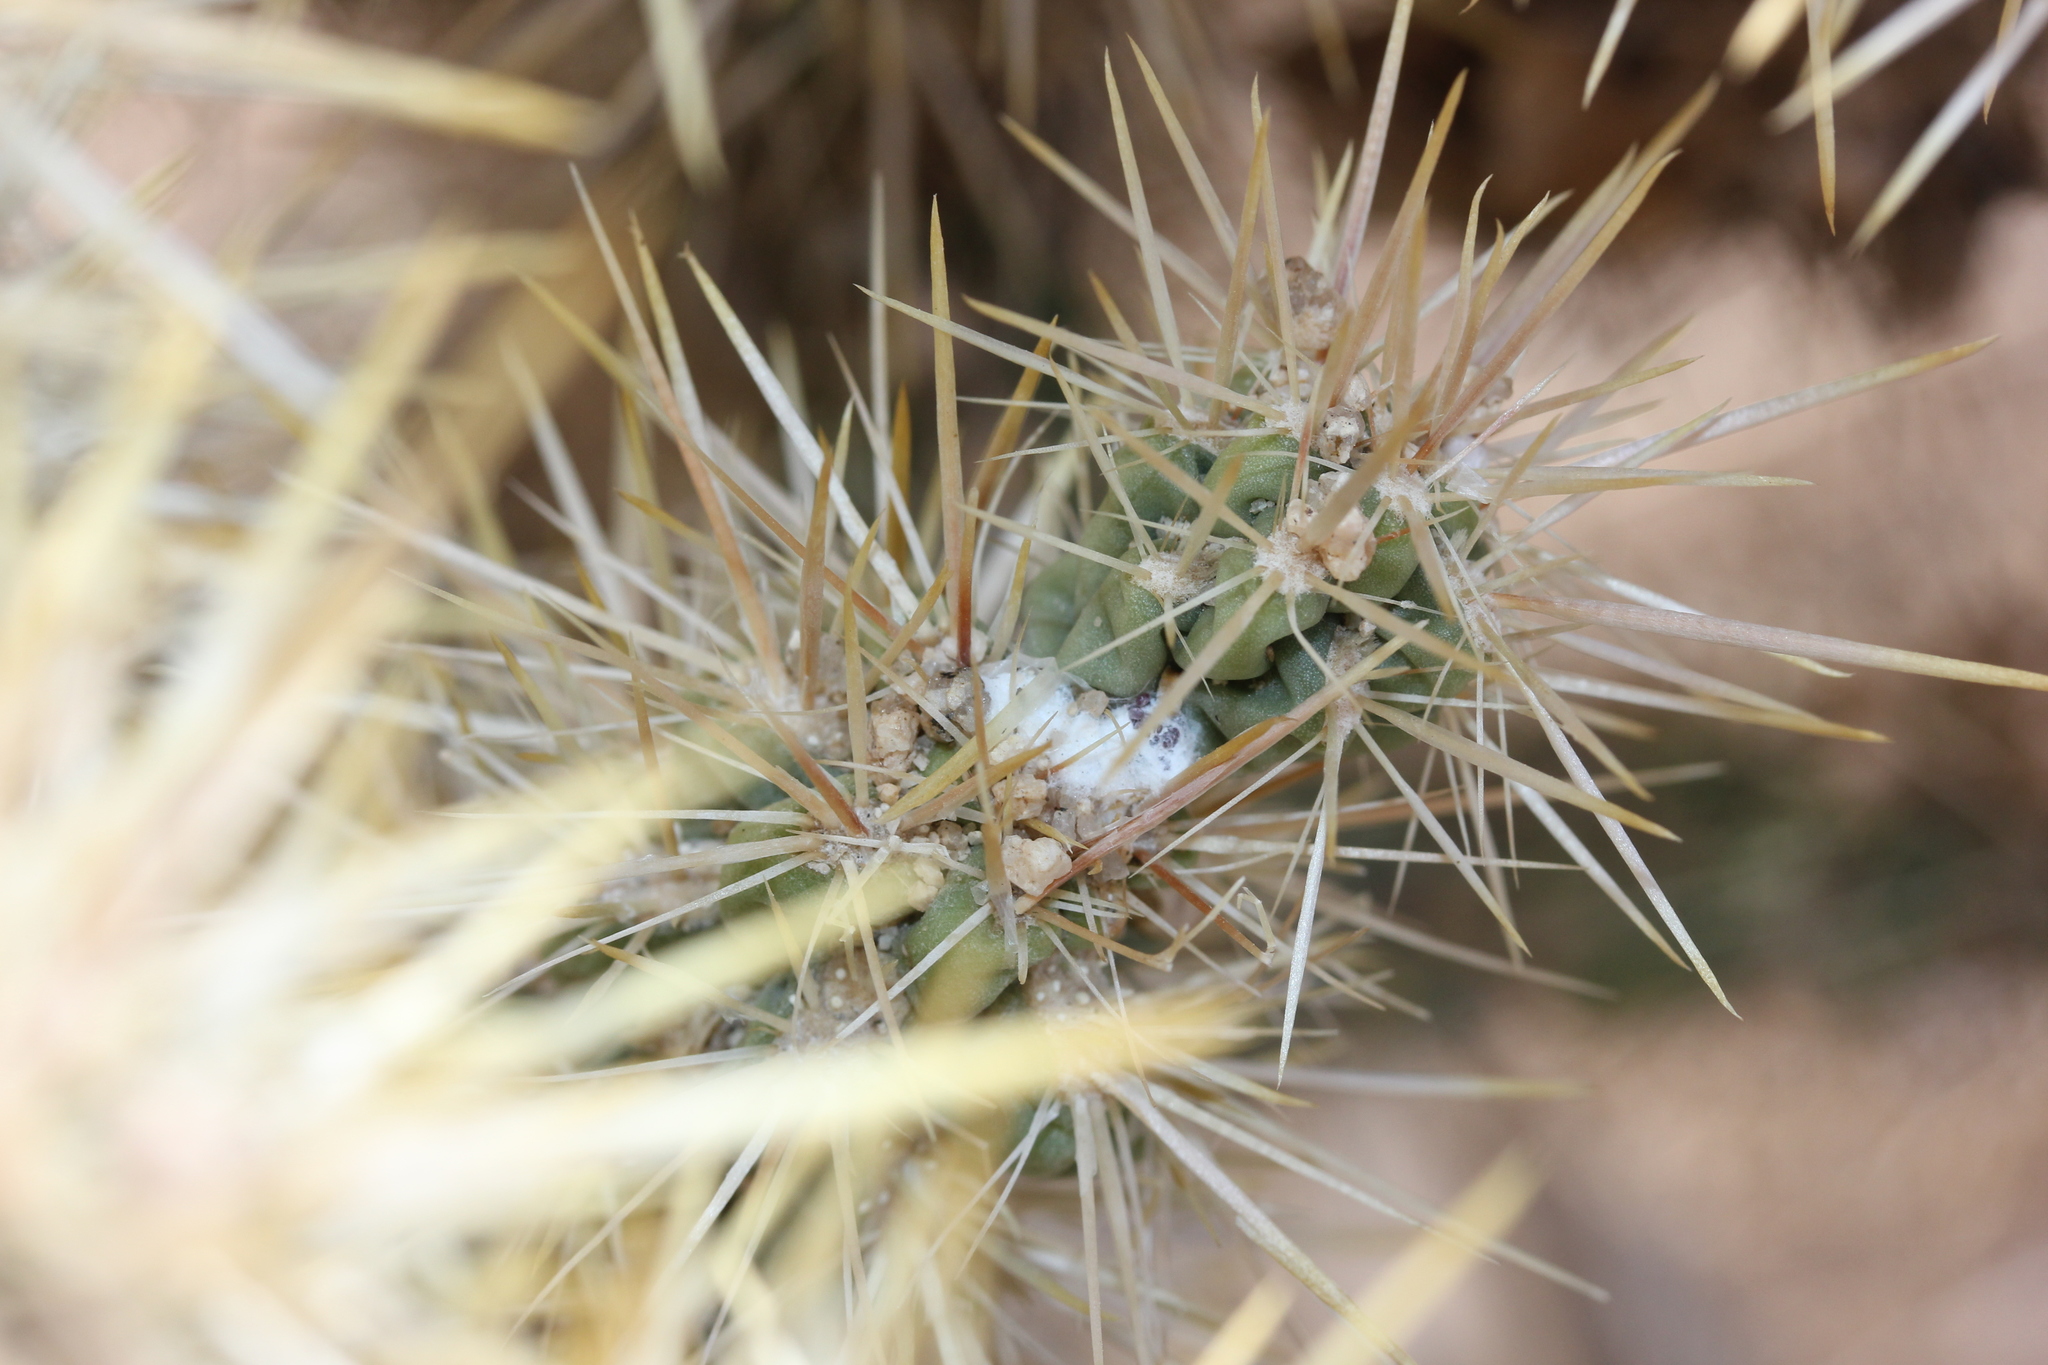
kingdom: Plantae
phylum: Tracheophyta
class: Magnoliopsida
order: Caryophyllales
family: Cactaceae
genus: Cylindropuntia
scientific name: Cylindropuntia echinocarpa
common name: Ground cholla
